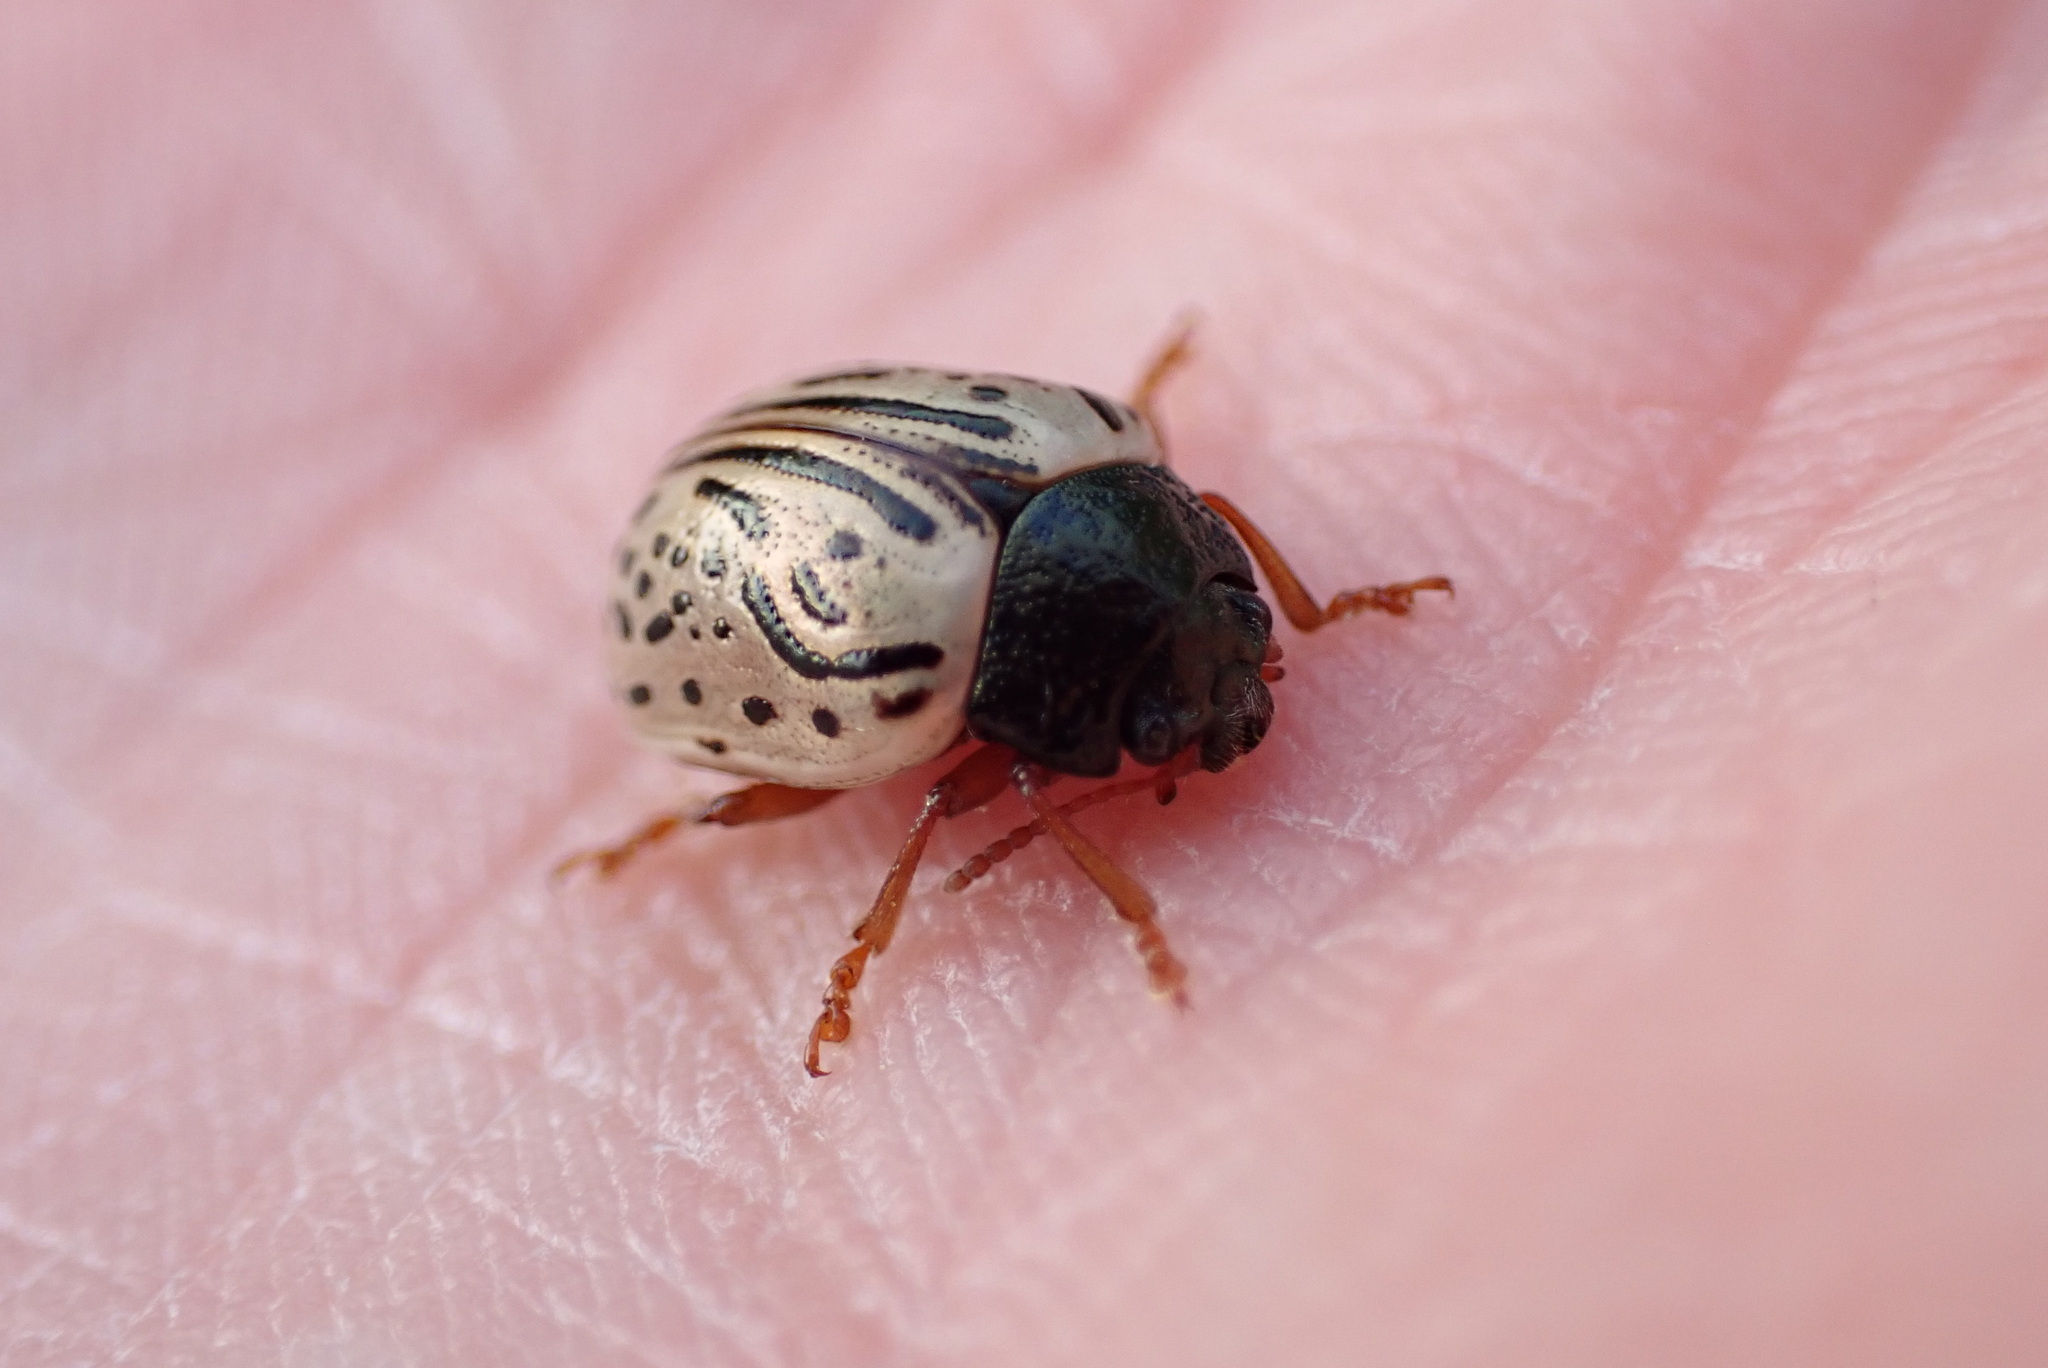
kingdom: Animalia
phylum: Arthropoda
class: Insecta
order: Coleoptera
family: Chrysomelidae
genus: Calligrapha
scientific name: Calligrapha philadelphica
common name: Dogwood leaf beetle
